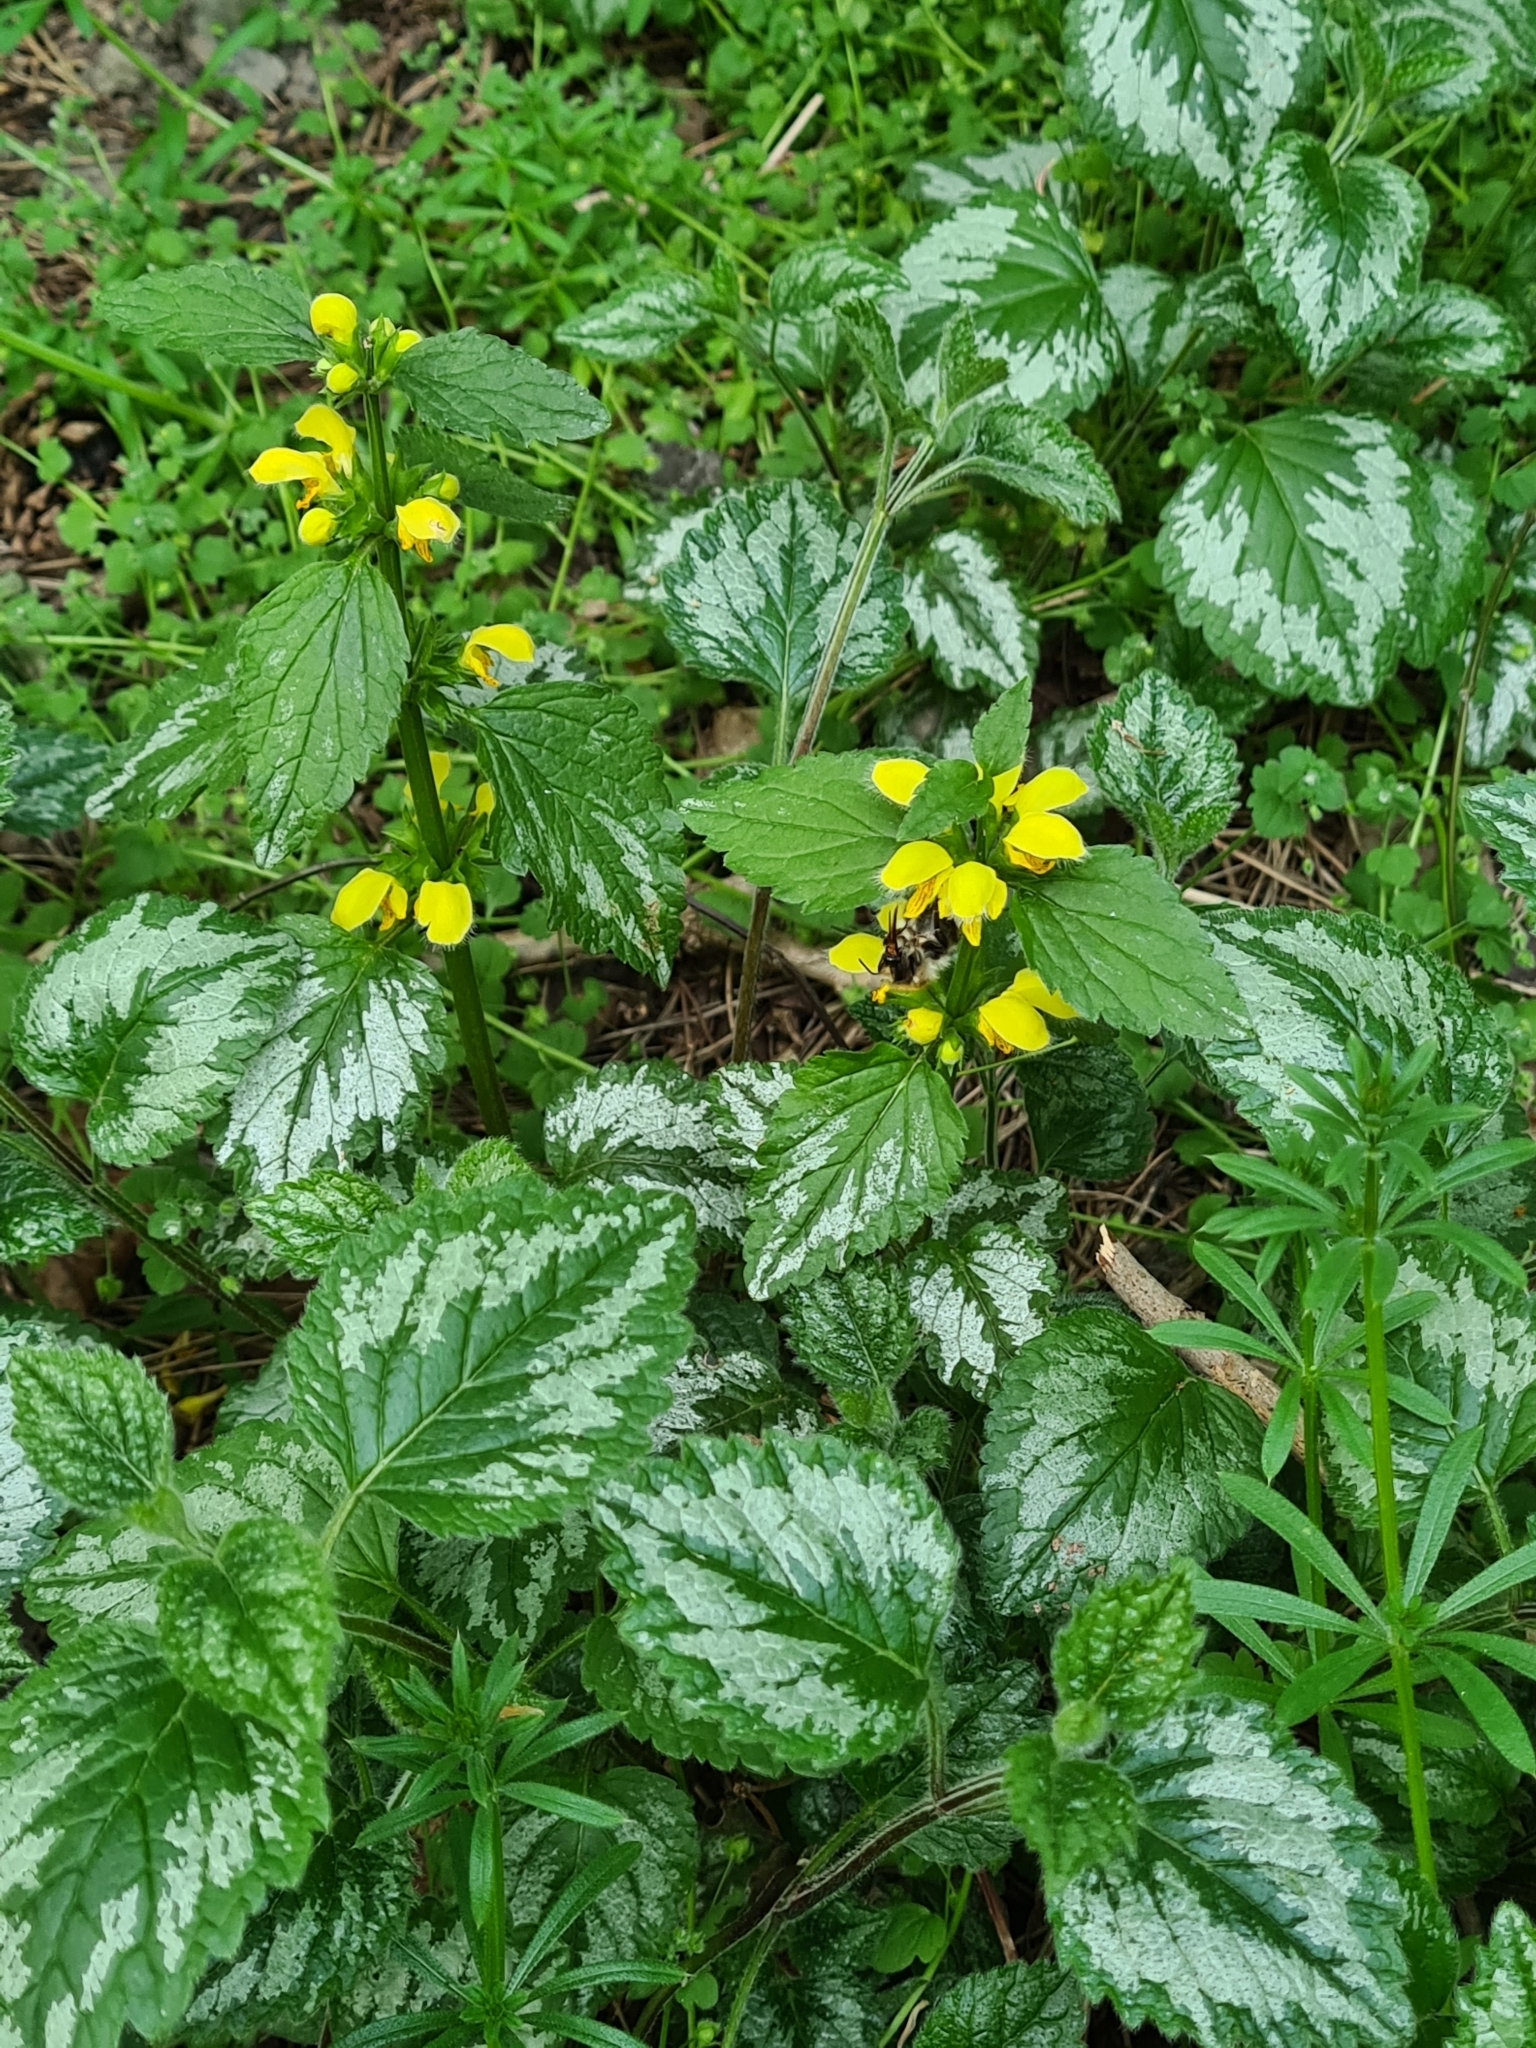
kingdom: Plantae
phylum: Tracheophyta
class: Magnoliopsida
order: Lamiales
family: Lamiaceae
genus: Lamium
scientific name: Lamium galeobdolon
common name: Yellow archangel
